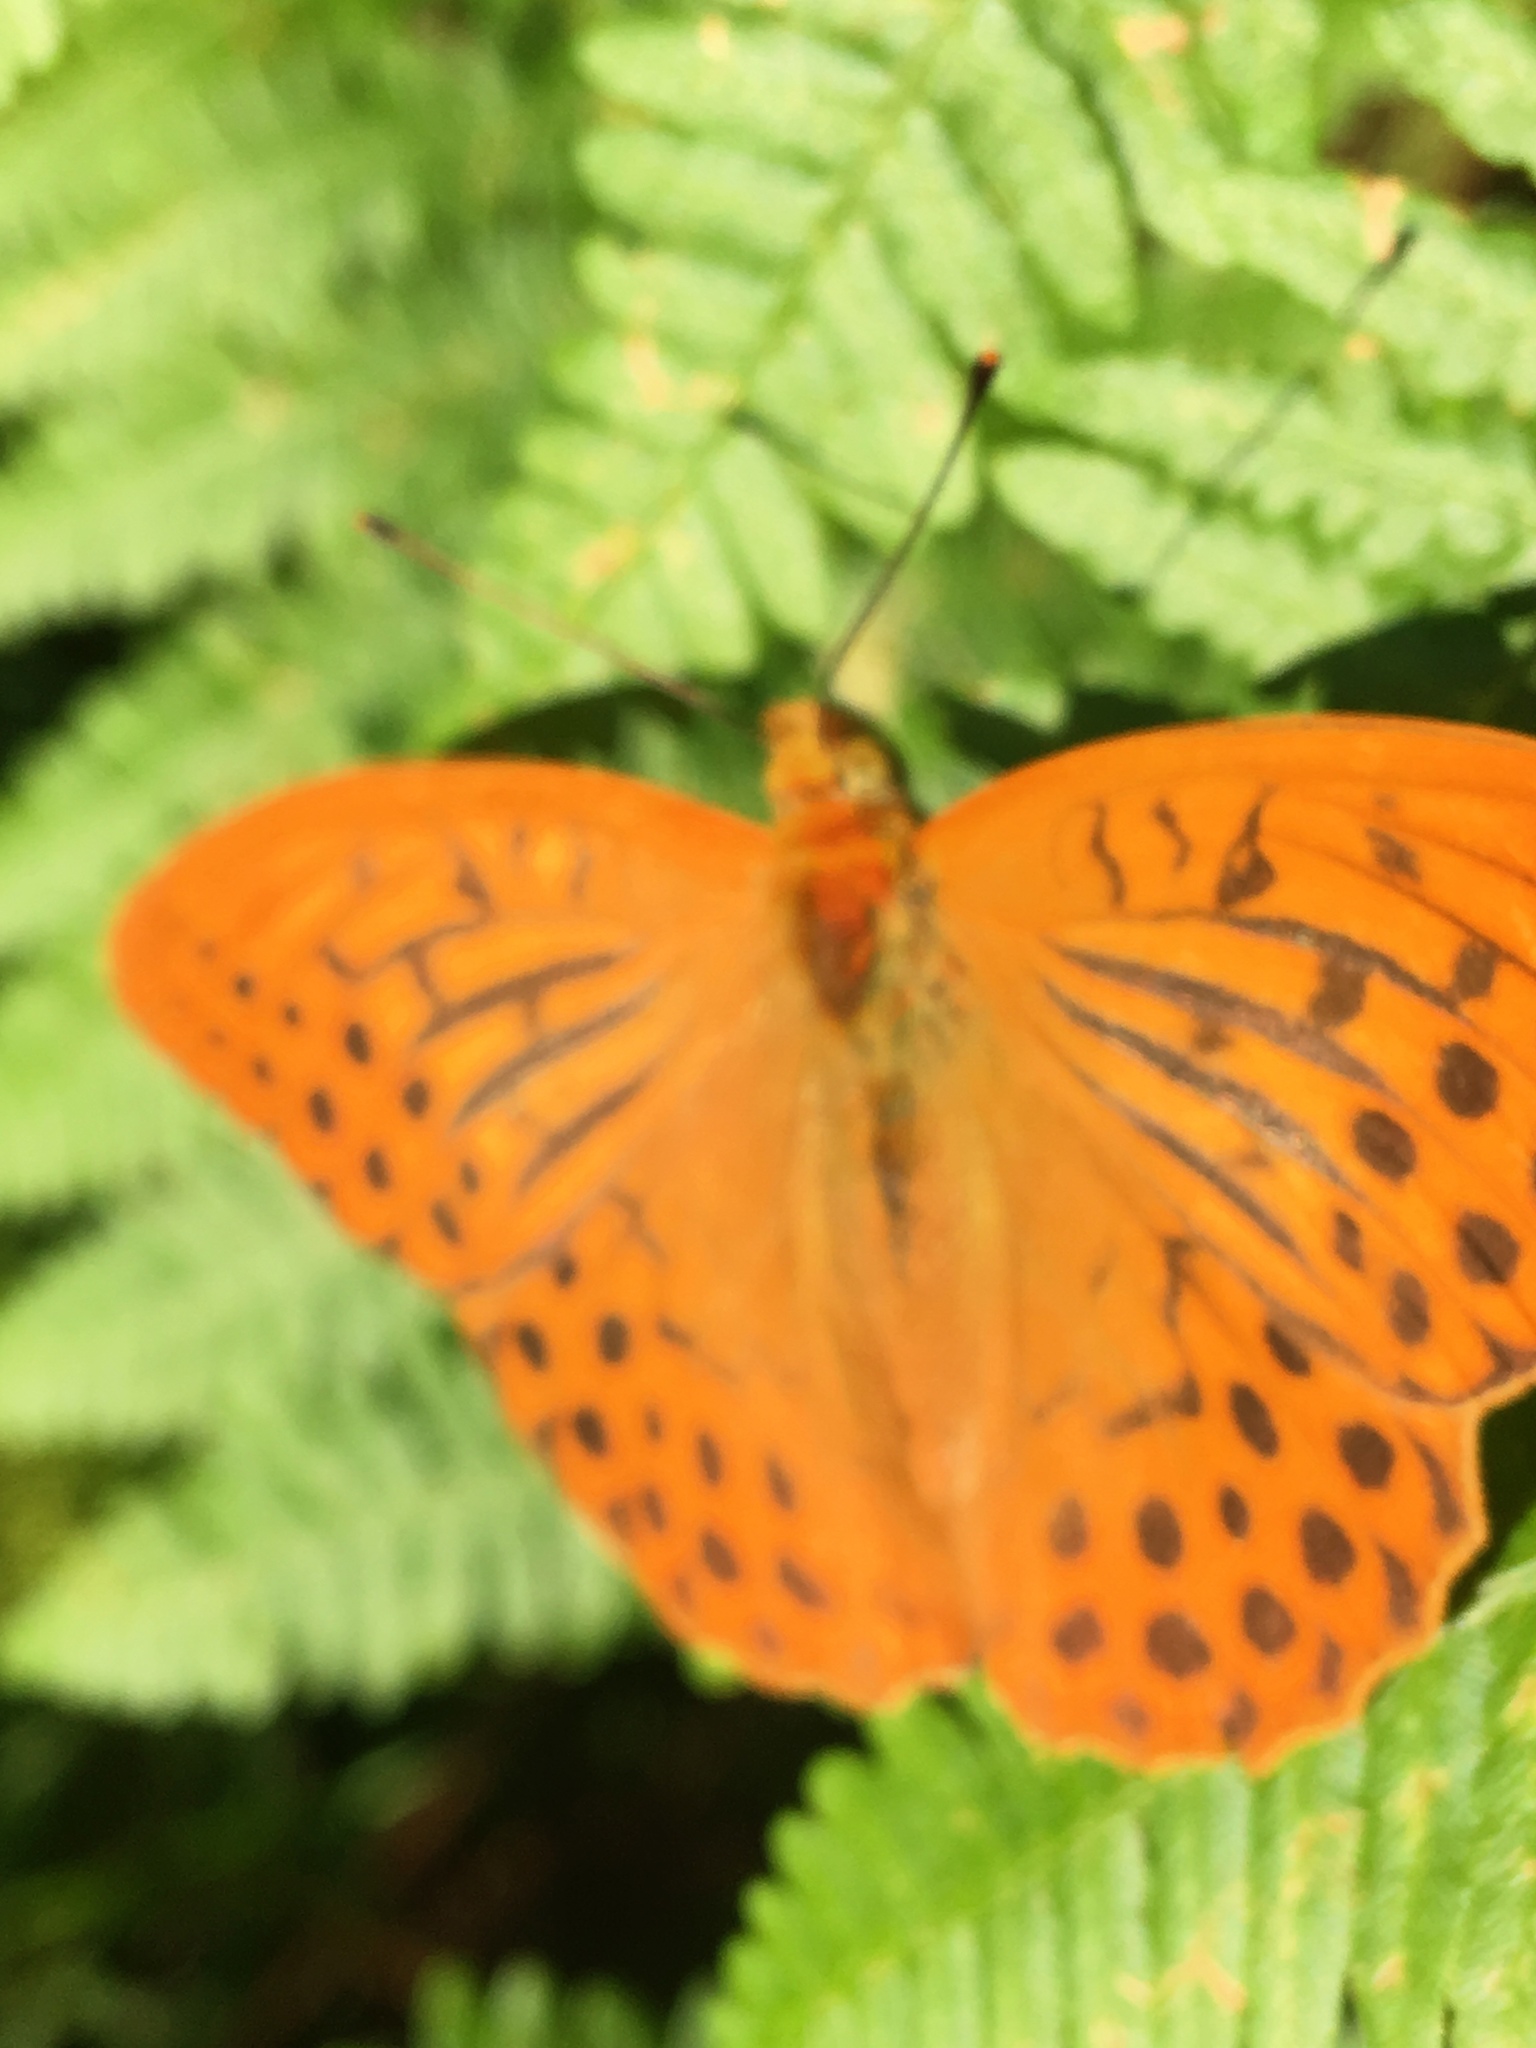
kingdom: Animalia
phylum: Arthropoda
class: Insecta
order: Lepidoptera
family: Nymphalidae
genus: Argynnis
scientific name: Argynnis paphia
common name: Silver-washed fritillary
